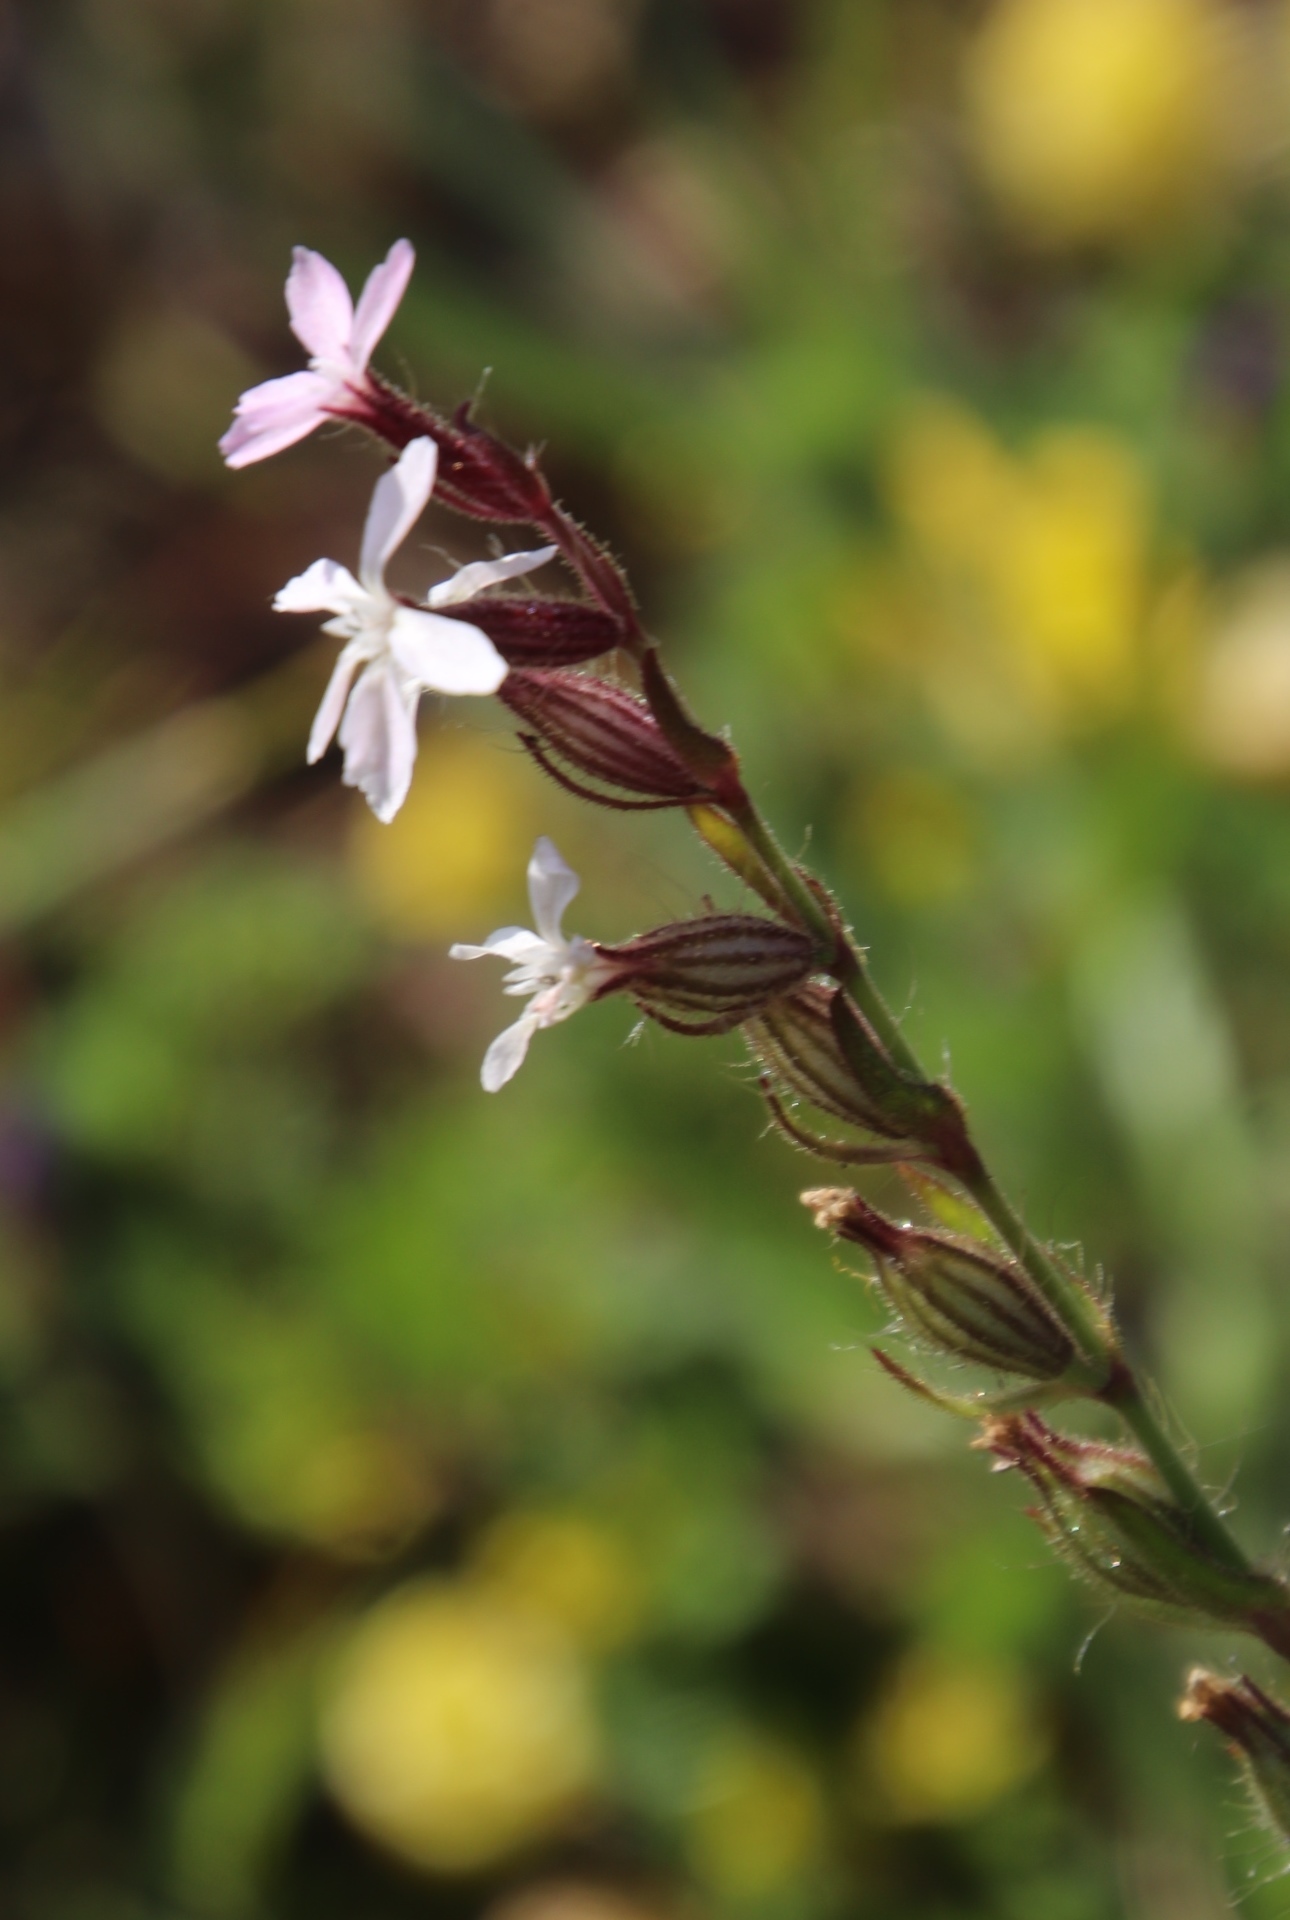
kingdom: Plantae
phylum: Tracheophyta
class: Magnoliopsida
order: Caryophyllales
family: Caryophyllaceae
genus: Silene
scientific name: Silene gallica
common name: Small-flowered catchfly
